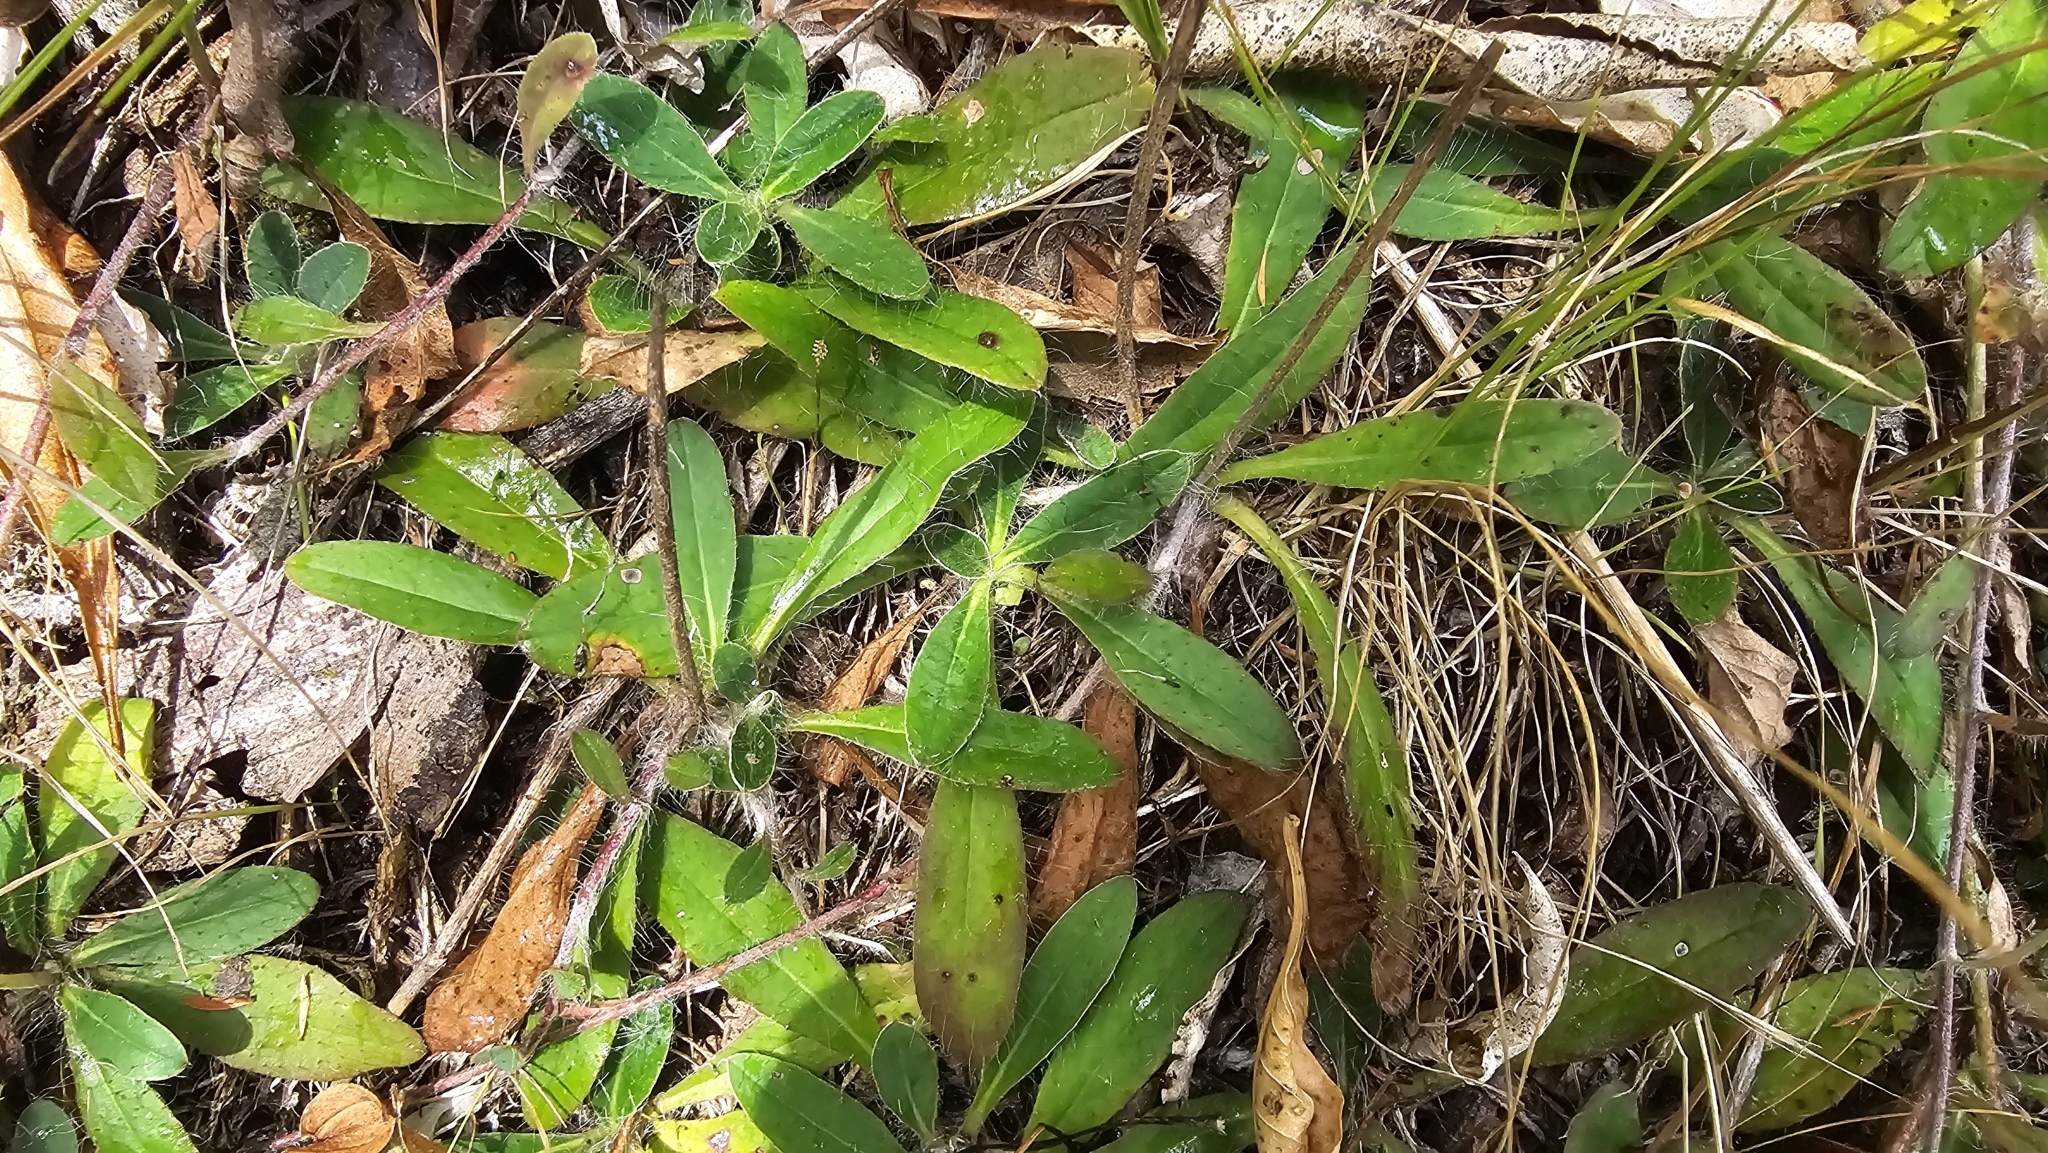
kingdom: Plantae
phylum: Tracheophyta
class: Magnoliopsida
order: Asterales
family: Asteraceae
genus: Pilosella
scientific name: Pilosella officinarum
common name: Mouse-ear hawkweed
